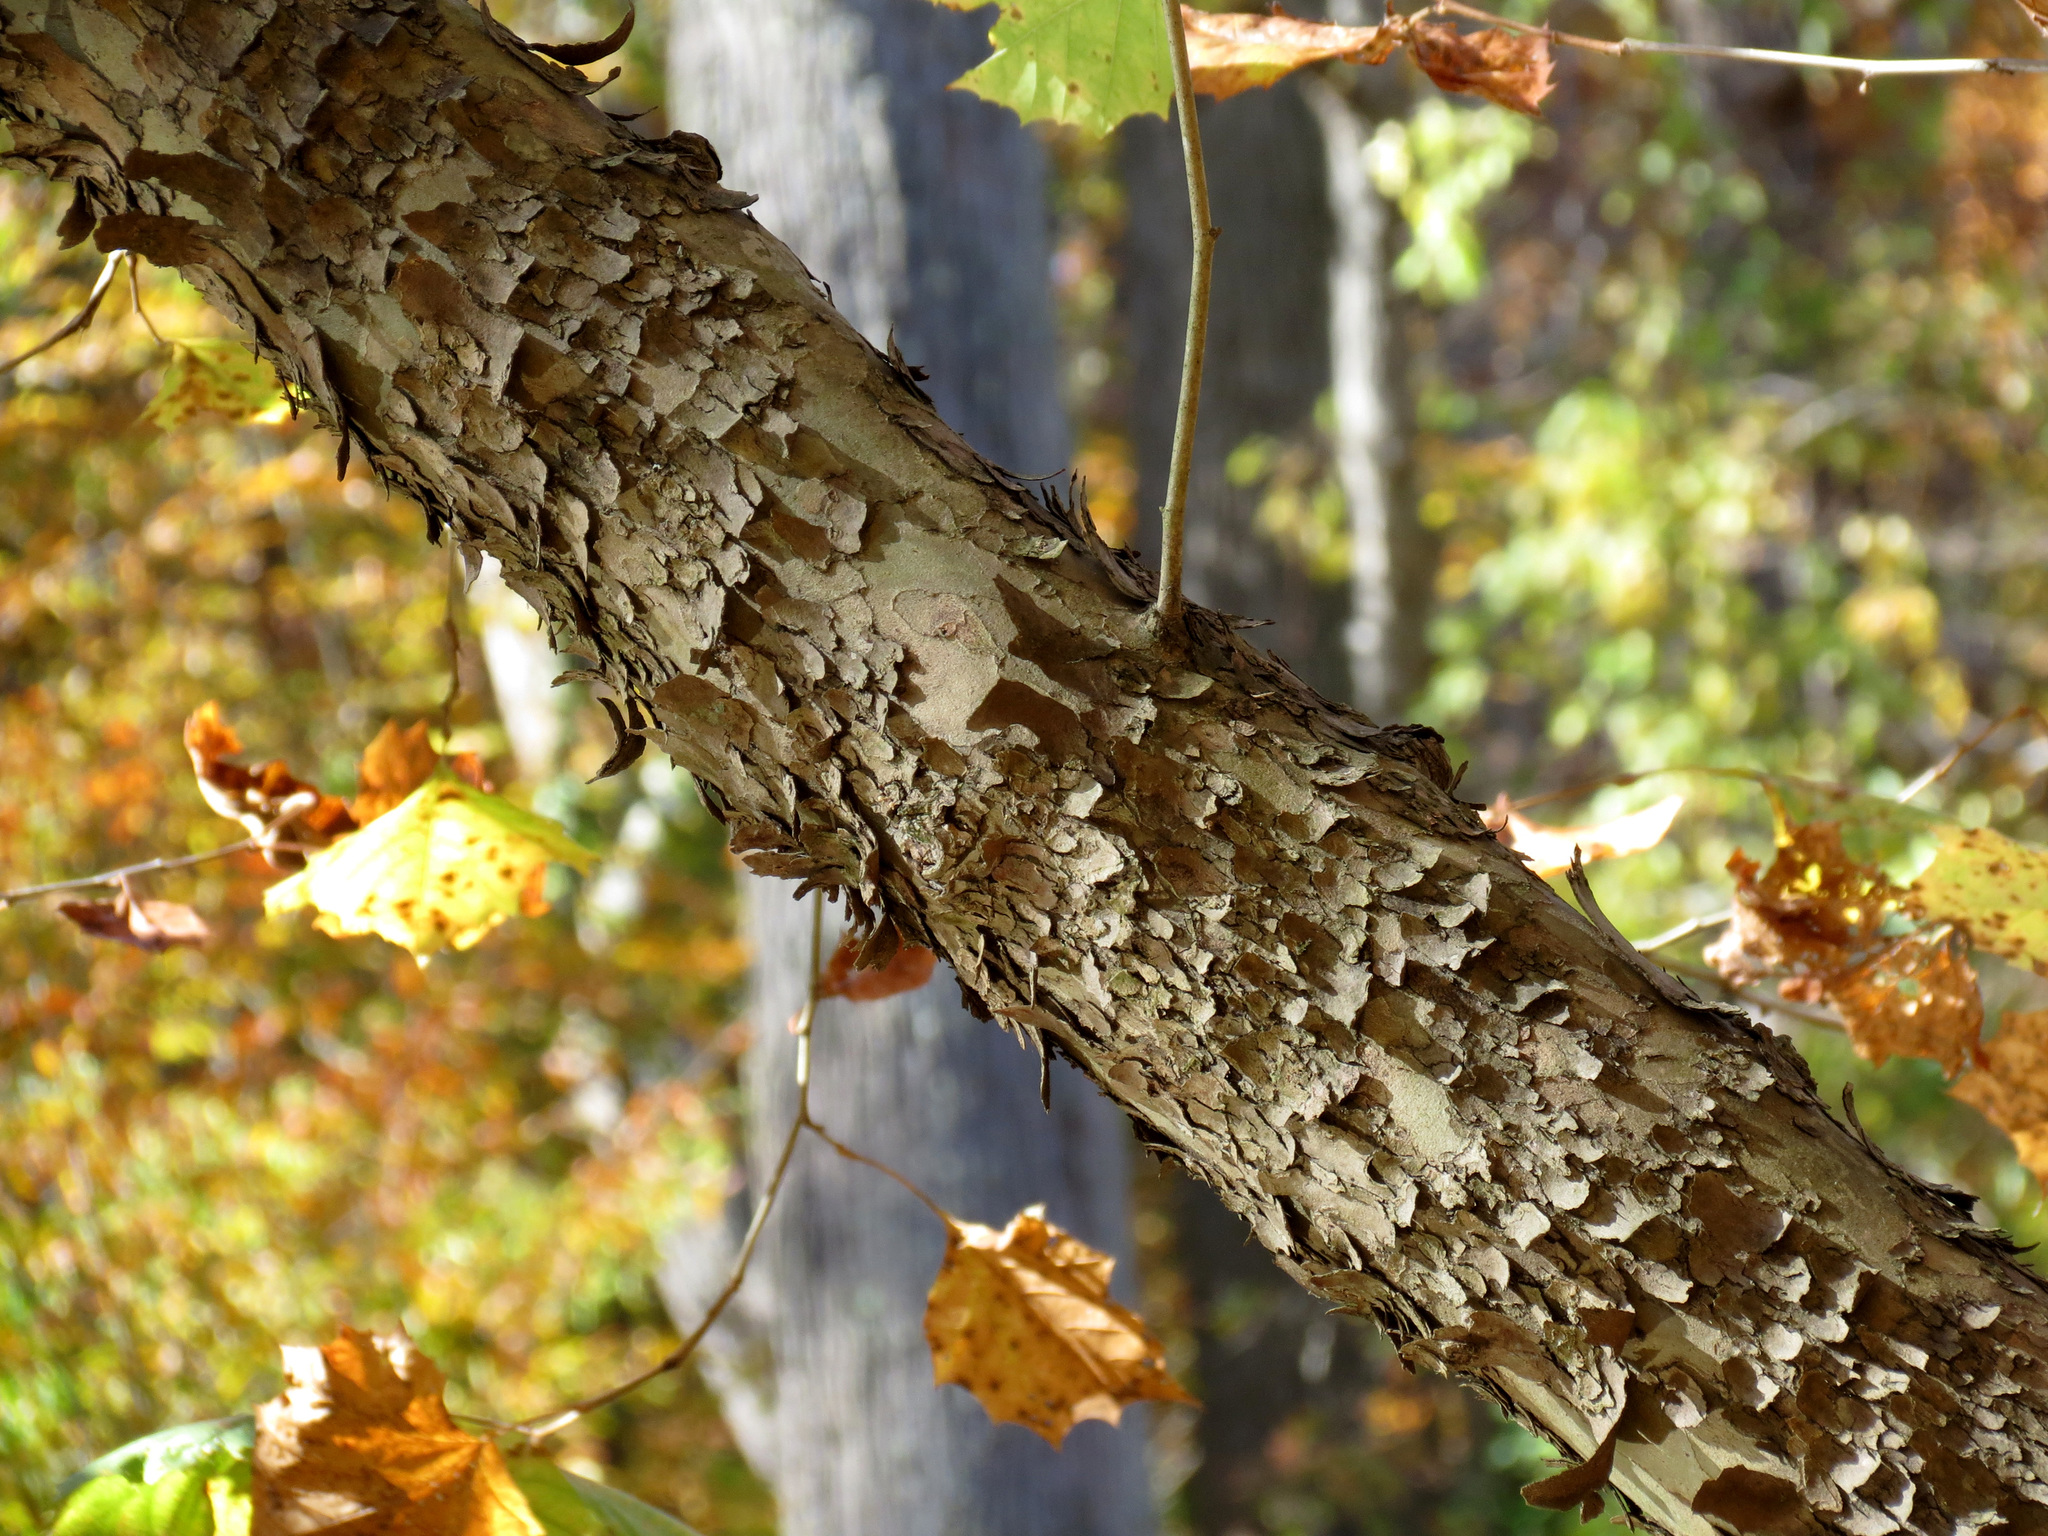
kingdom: Plantae
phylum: Tracheophyta
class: Magnoliopsida
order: Proteales
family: Platanaceae
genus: Platanus
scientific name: Platanus occidentalis
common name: American sycamore
